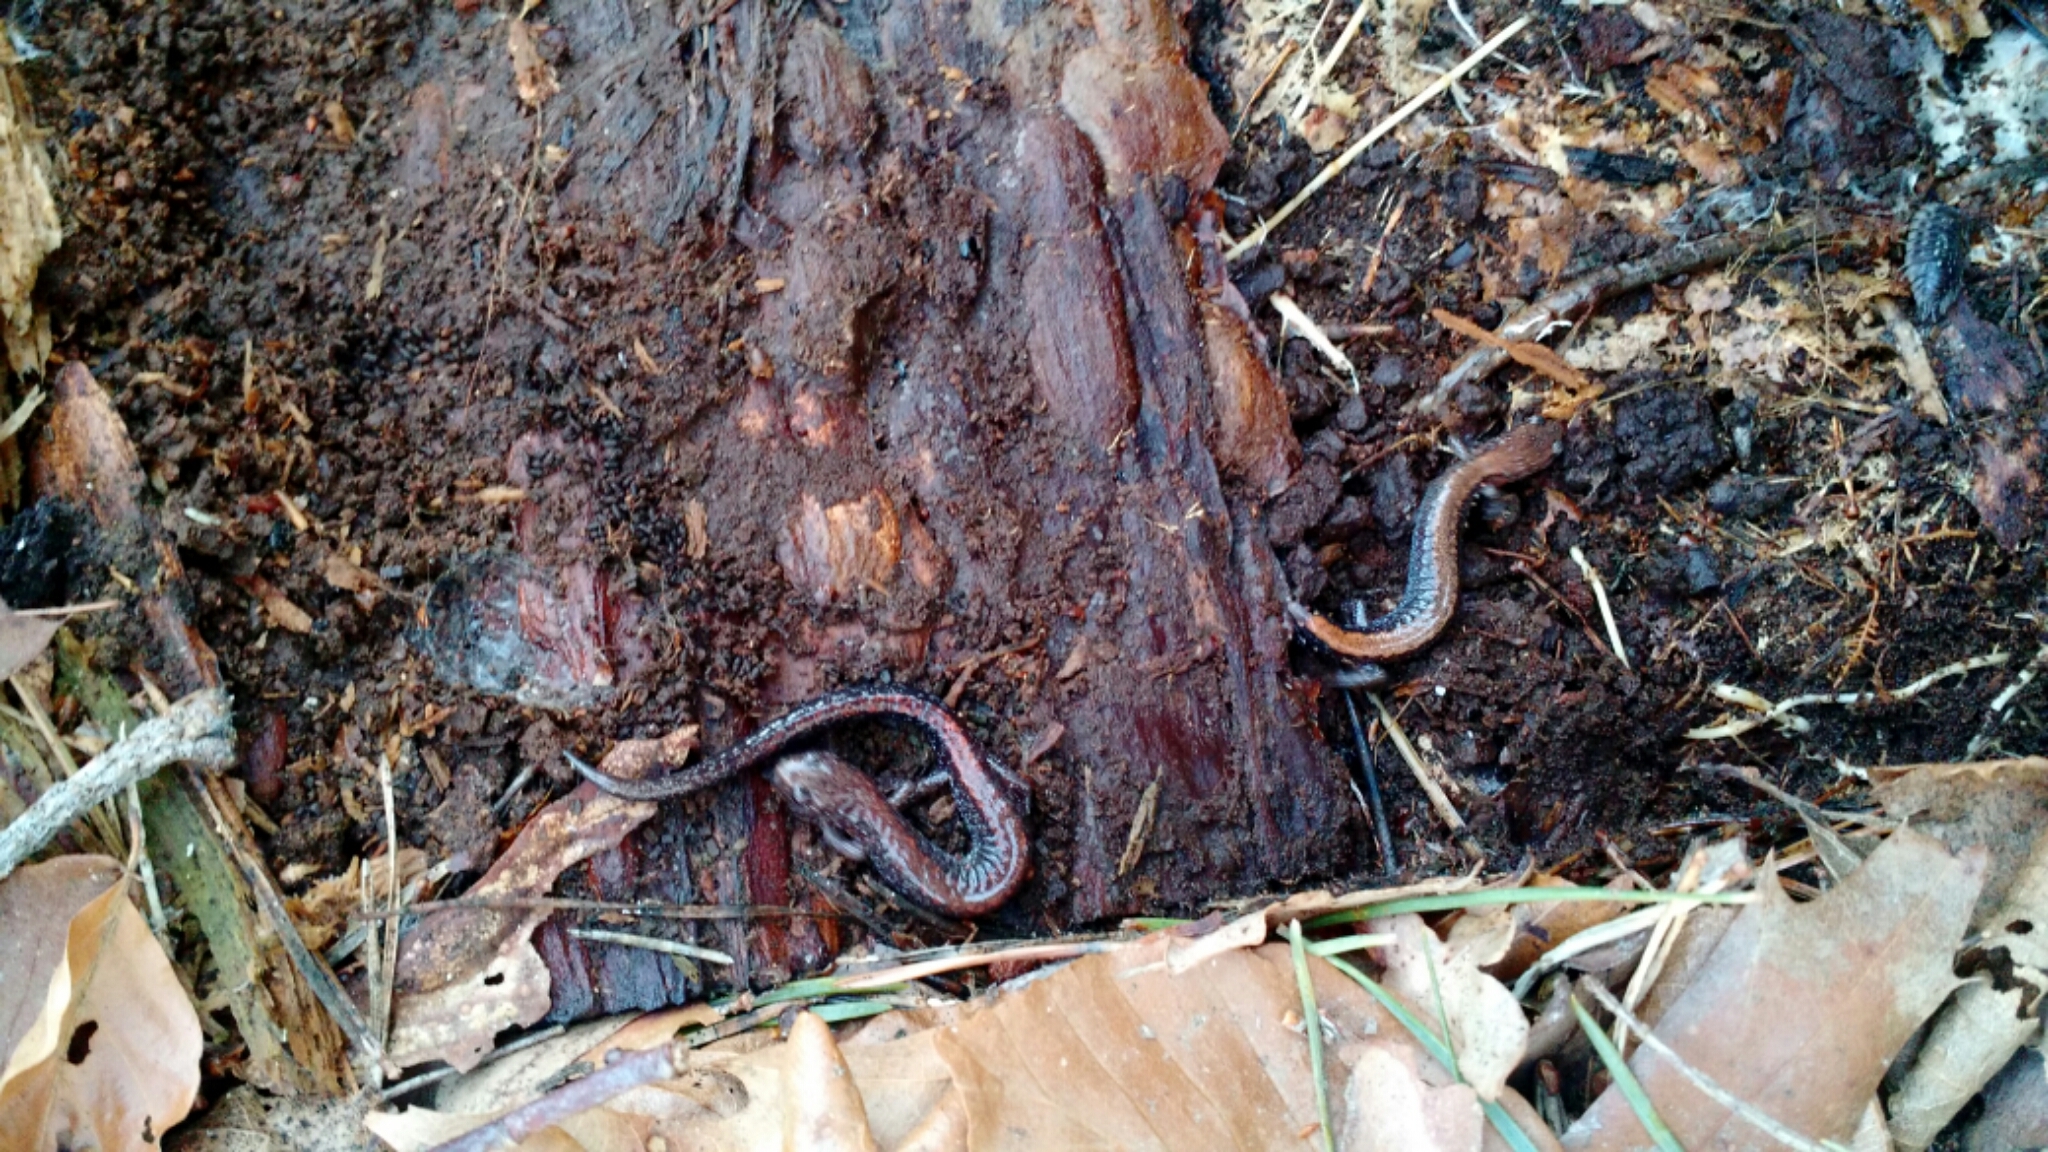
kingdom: Animalia
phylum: Chordata
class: Amphibia
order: Caudata
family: Plethodontidae
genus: Plethodon
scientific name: Plethodon cinereus
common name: Redback salamander
